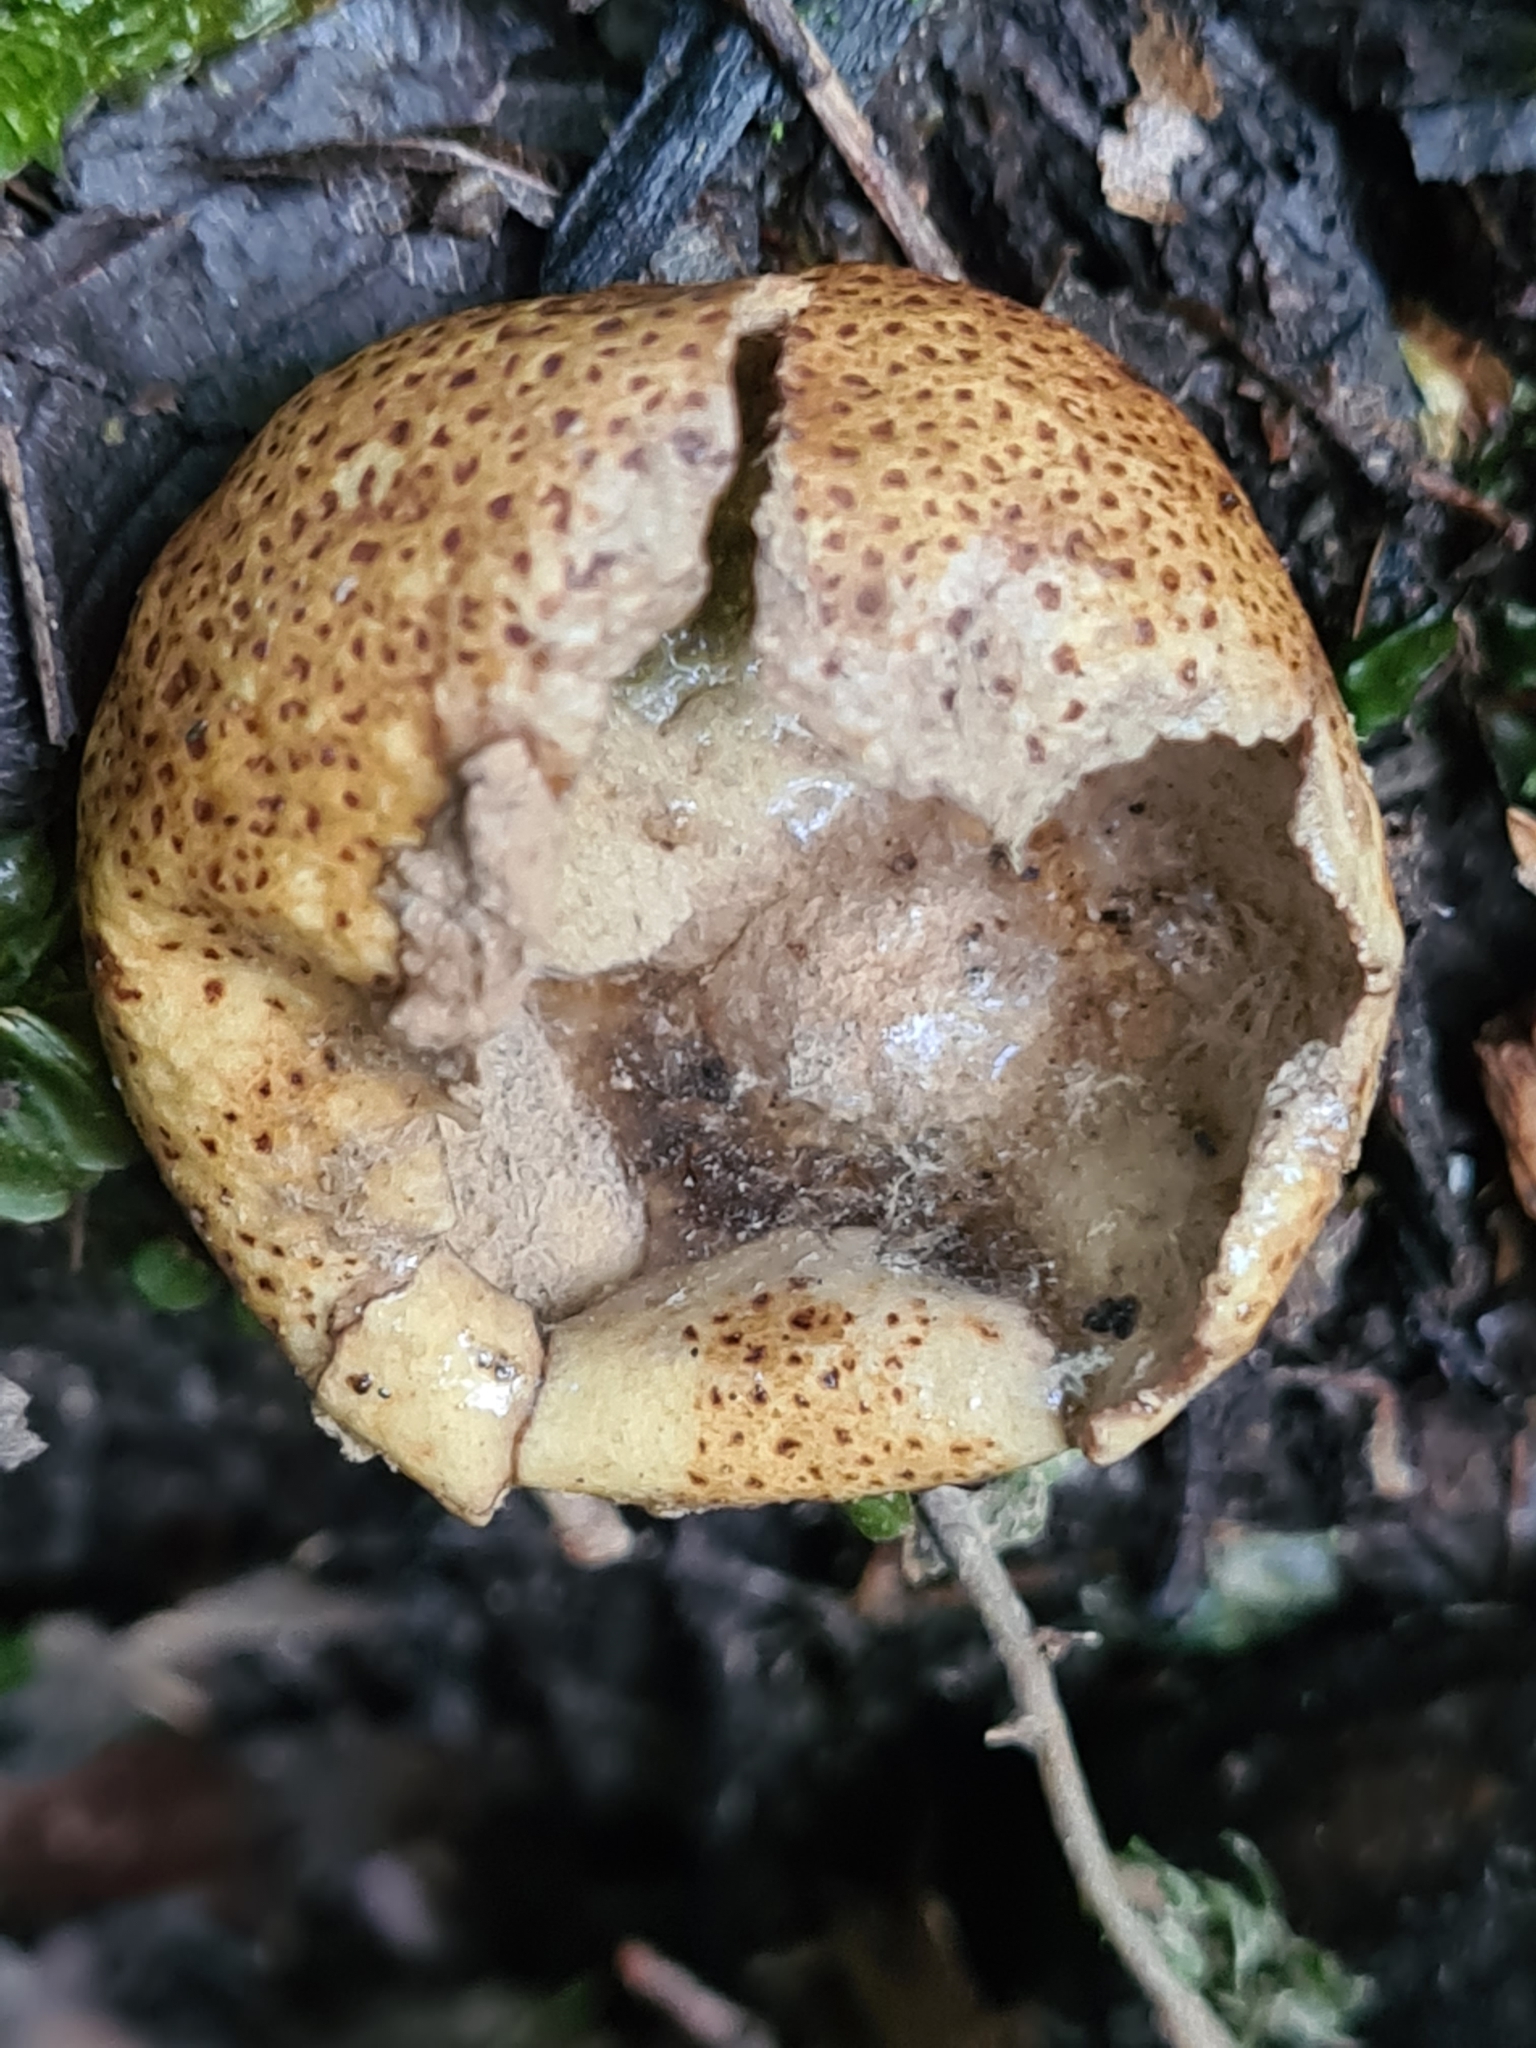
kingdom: Fungi
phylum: Basidiomycota
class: Agaricomycetes
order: Boletales
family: Sclerodermataceae
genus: Scleroderma
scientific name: Scleroderma areolatum
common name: Leopard earthball
